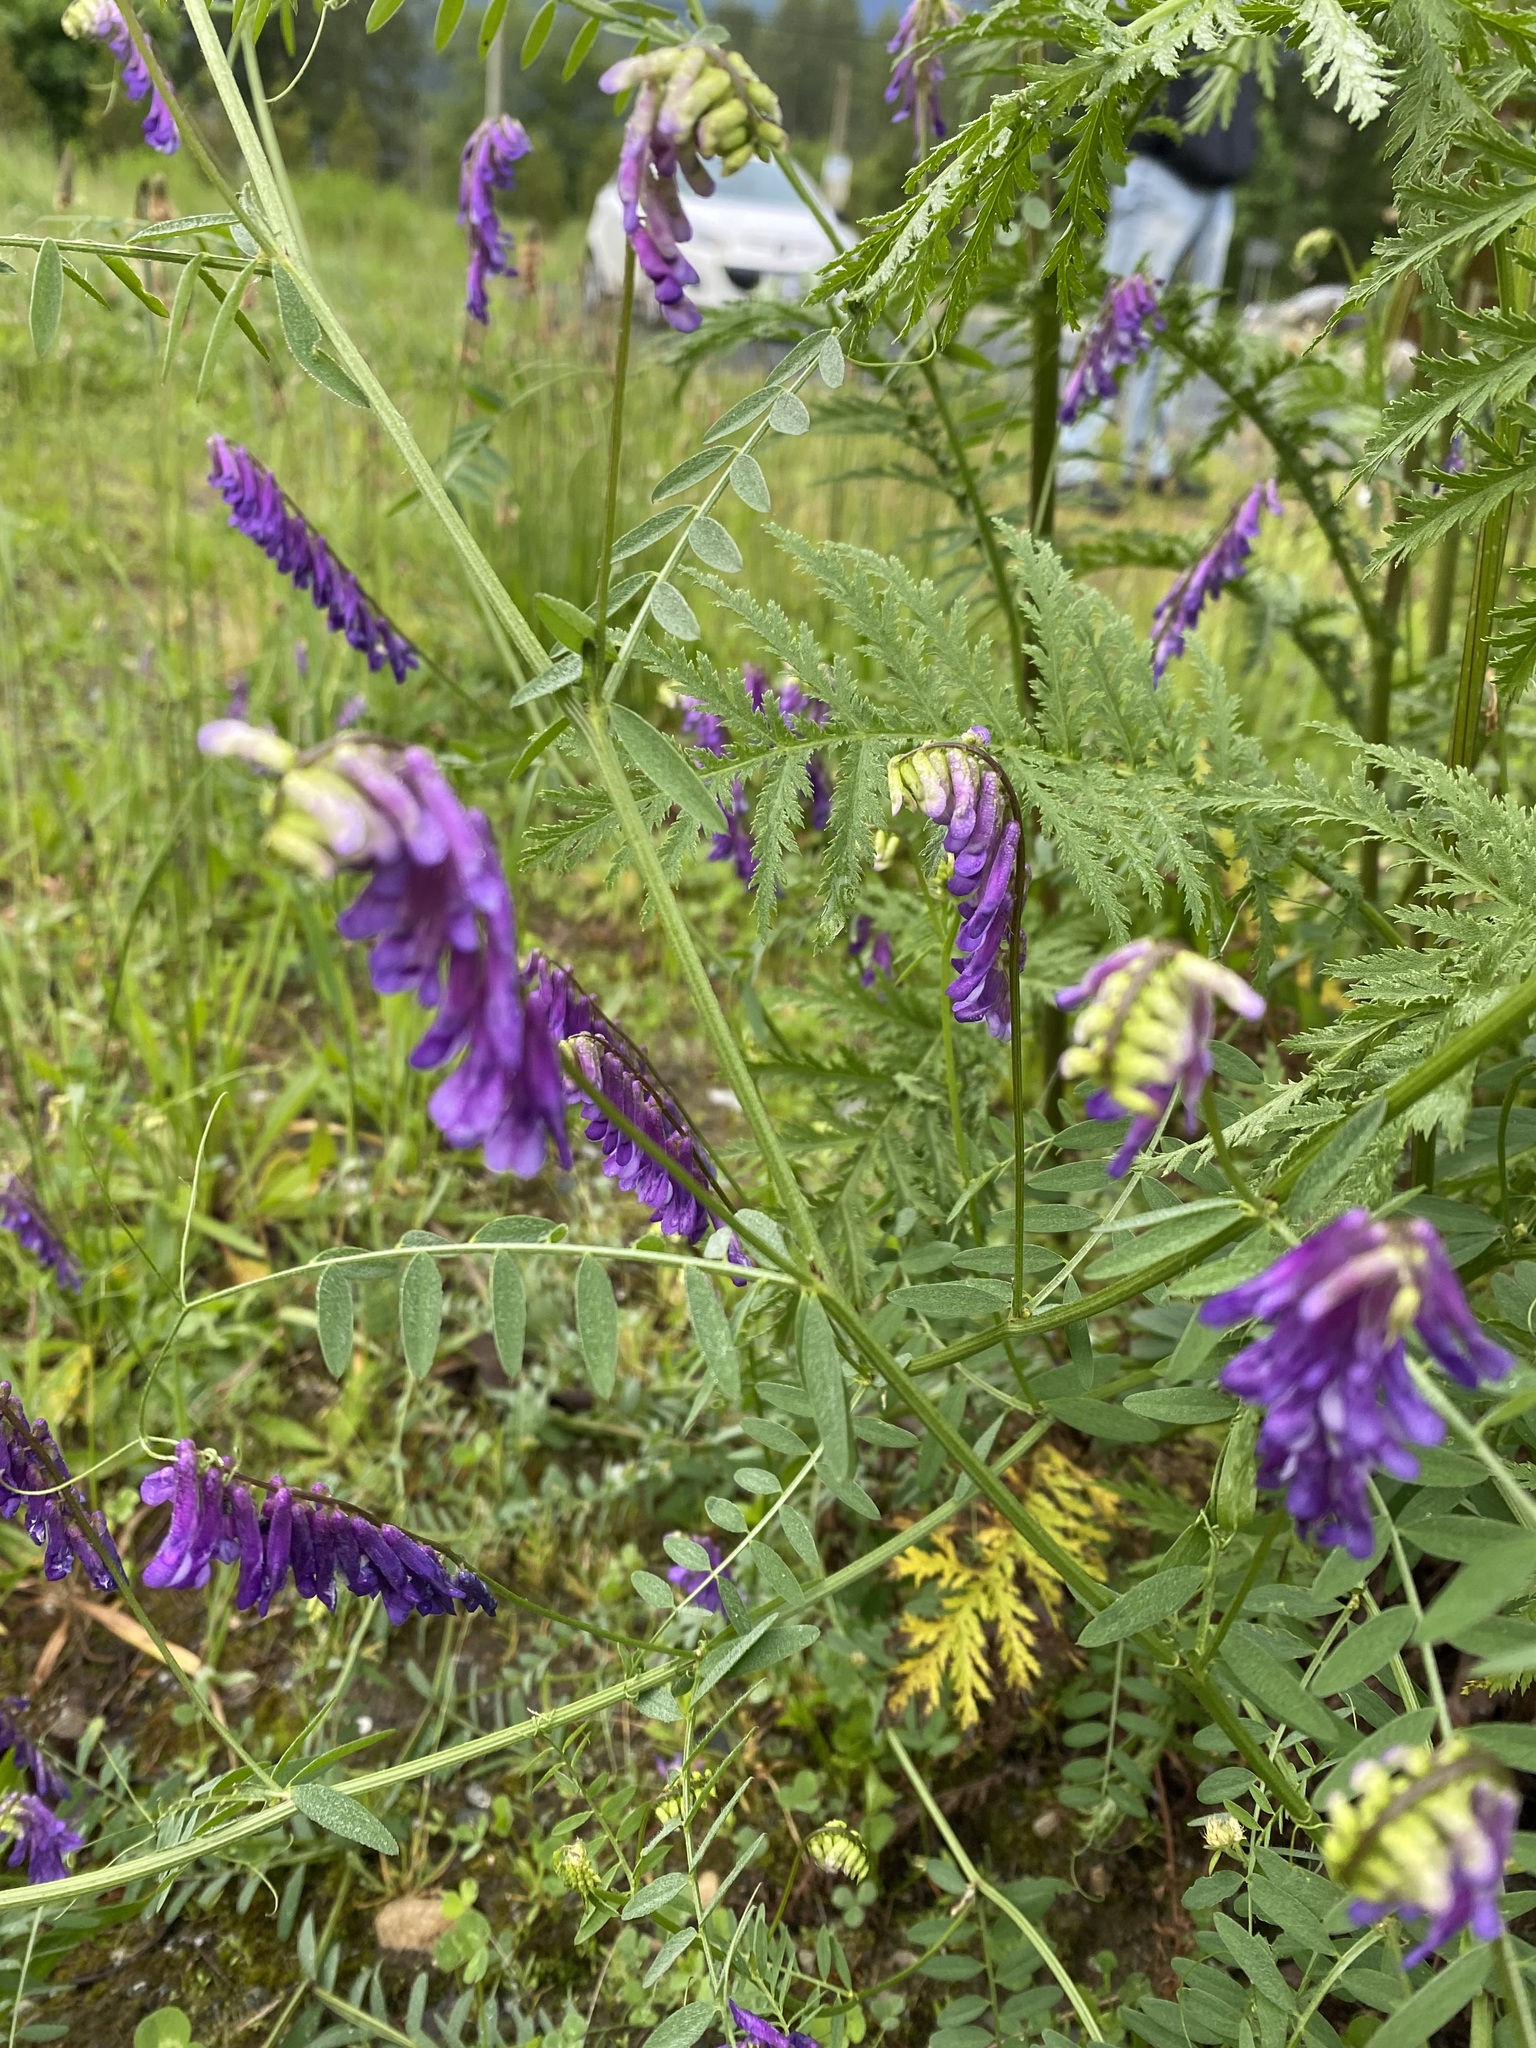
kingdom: Plantae
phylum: Tracheophyta
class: Magnoliopsida
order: Fabales
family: Fabaceae
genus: Vicia
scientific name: Vicia villosa
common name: Fodder vetch
